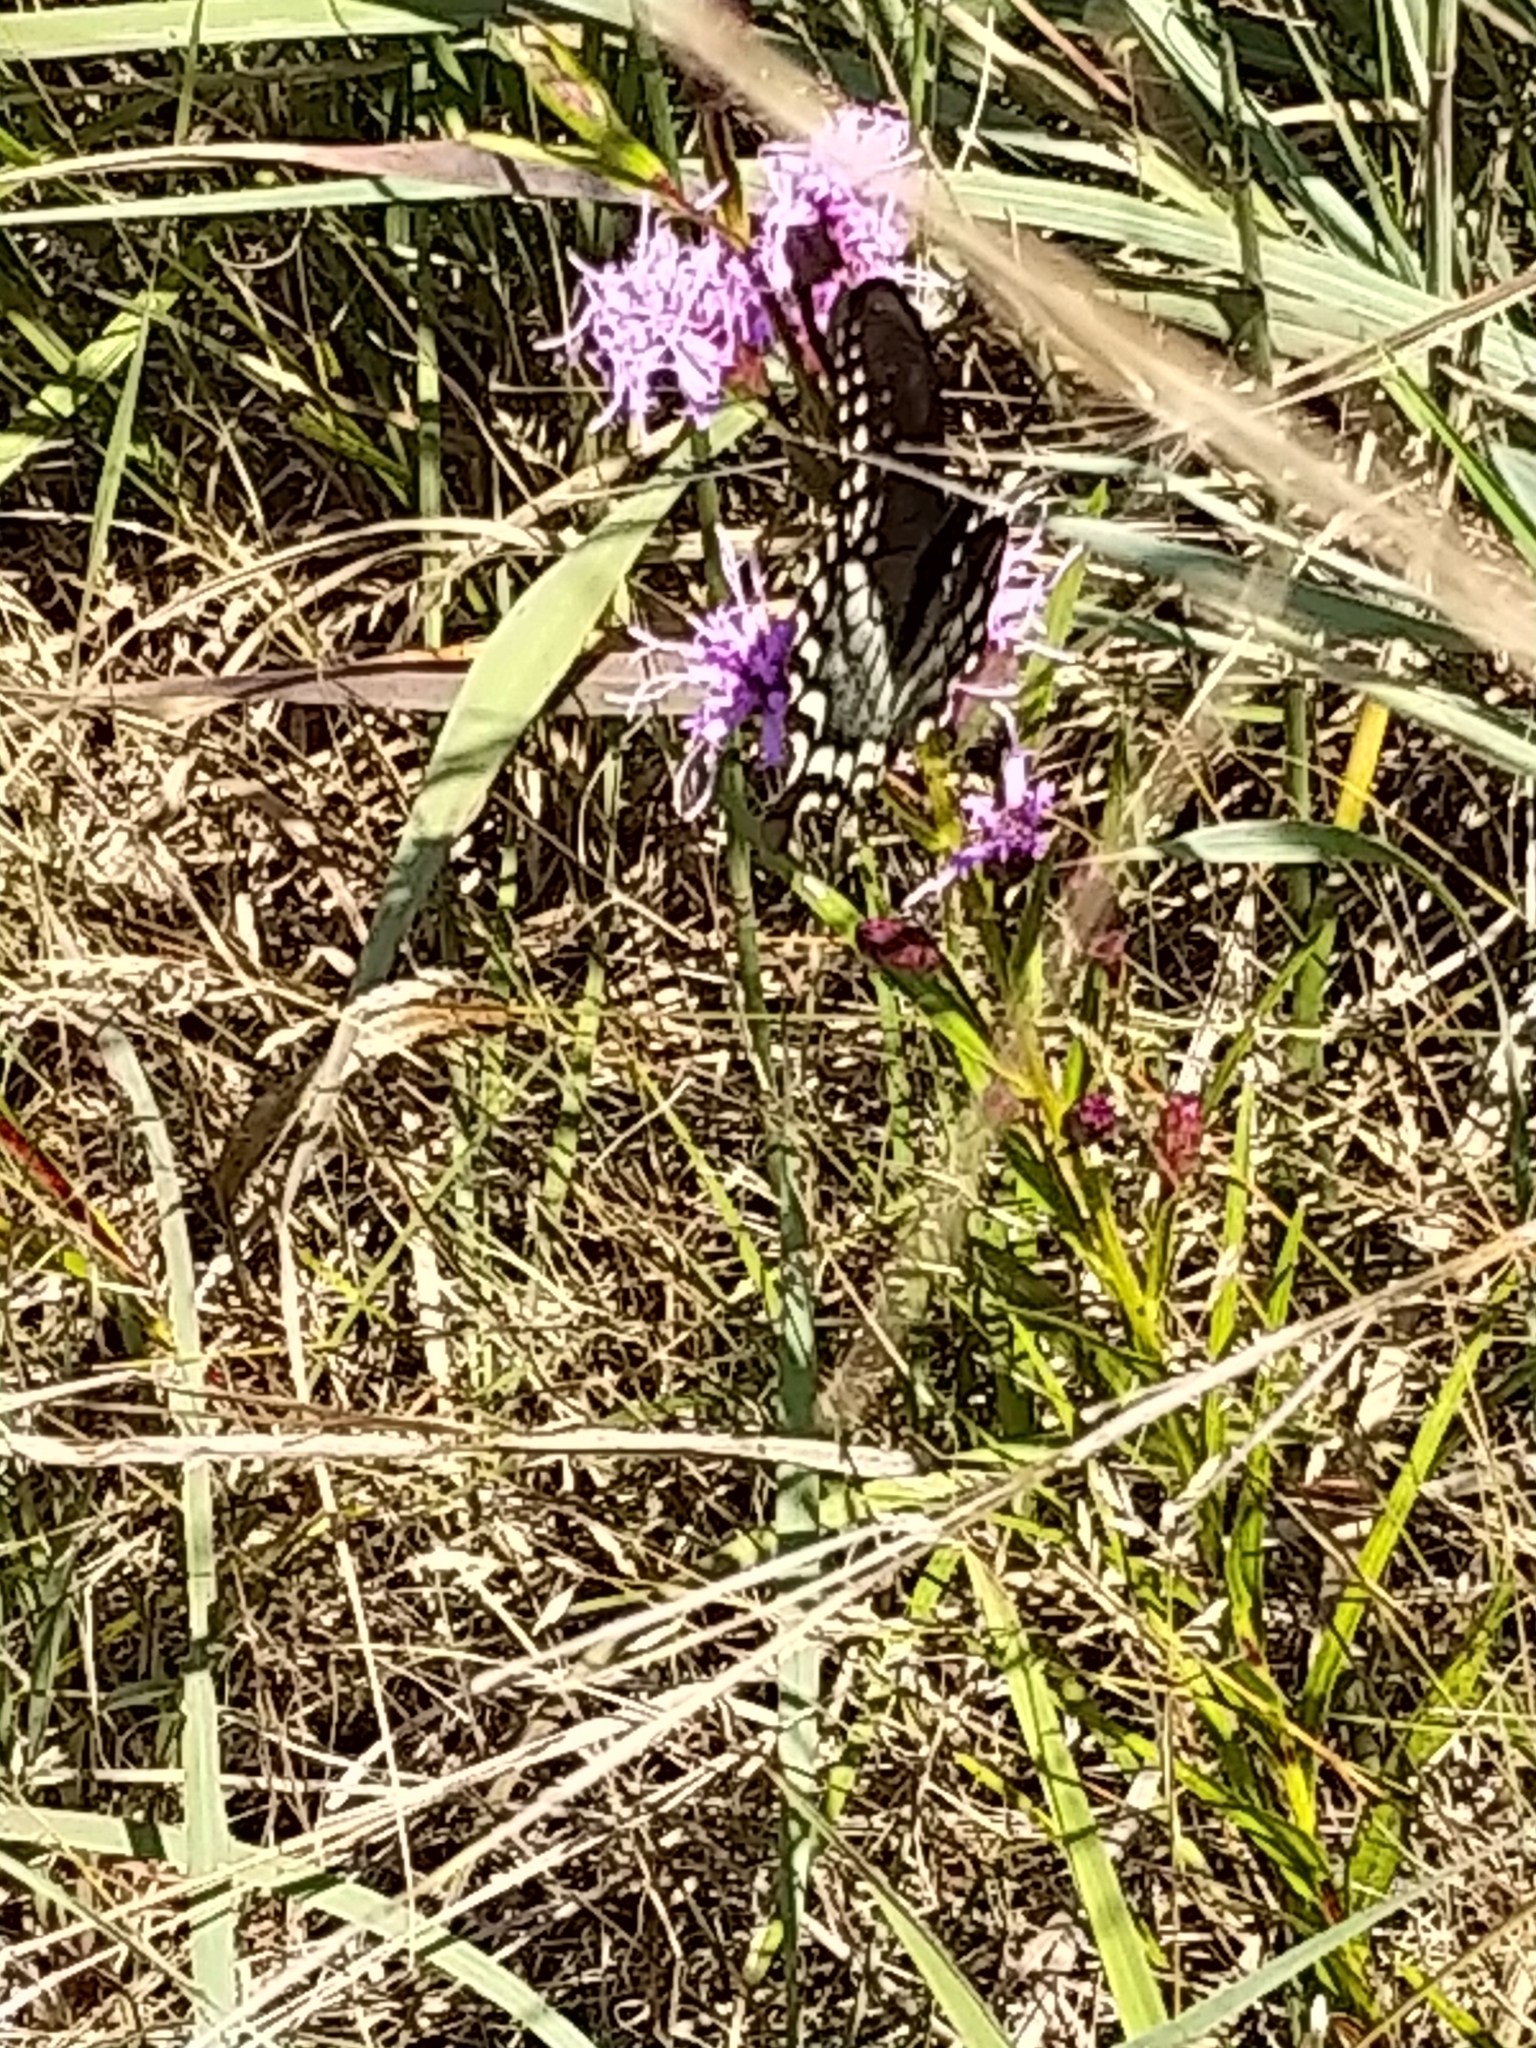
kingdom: Animalia
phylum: Arthropoda
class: Insecta
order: Lepidoptera
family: Papilionidae
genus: Papilio
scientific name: Papilio troilus
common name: Spicebush swallowtail
